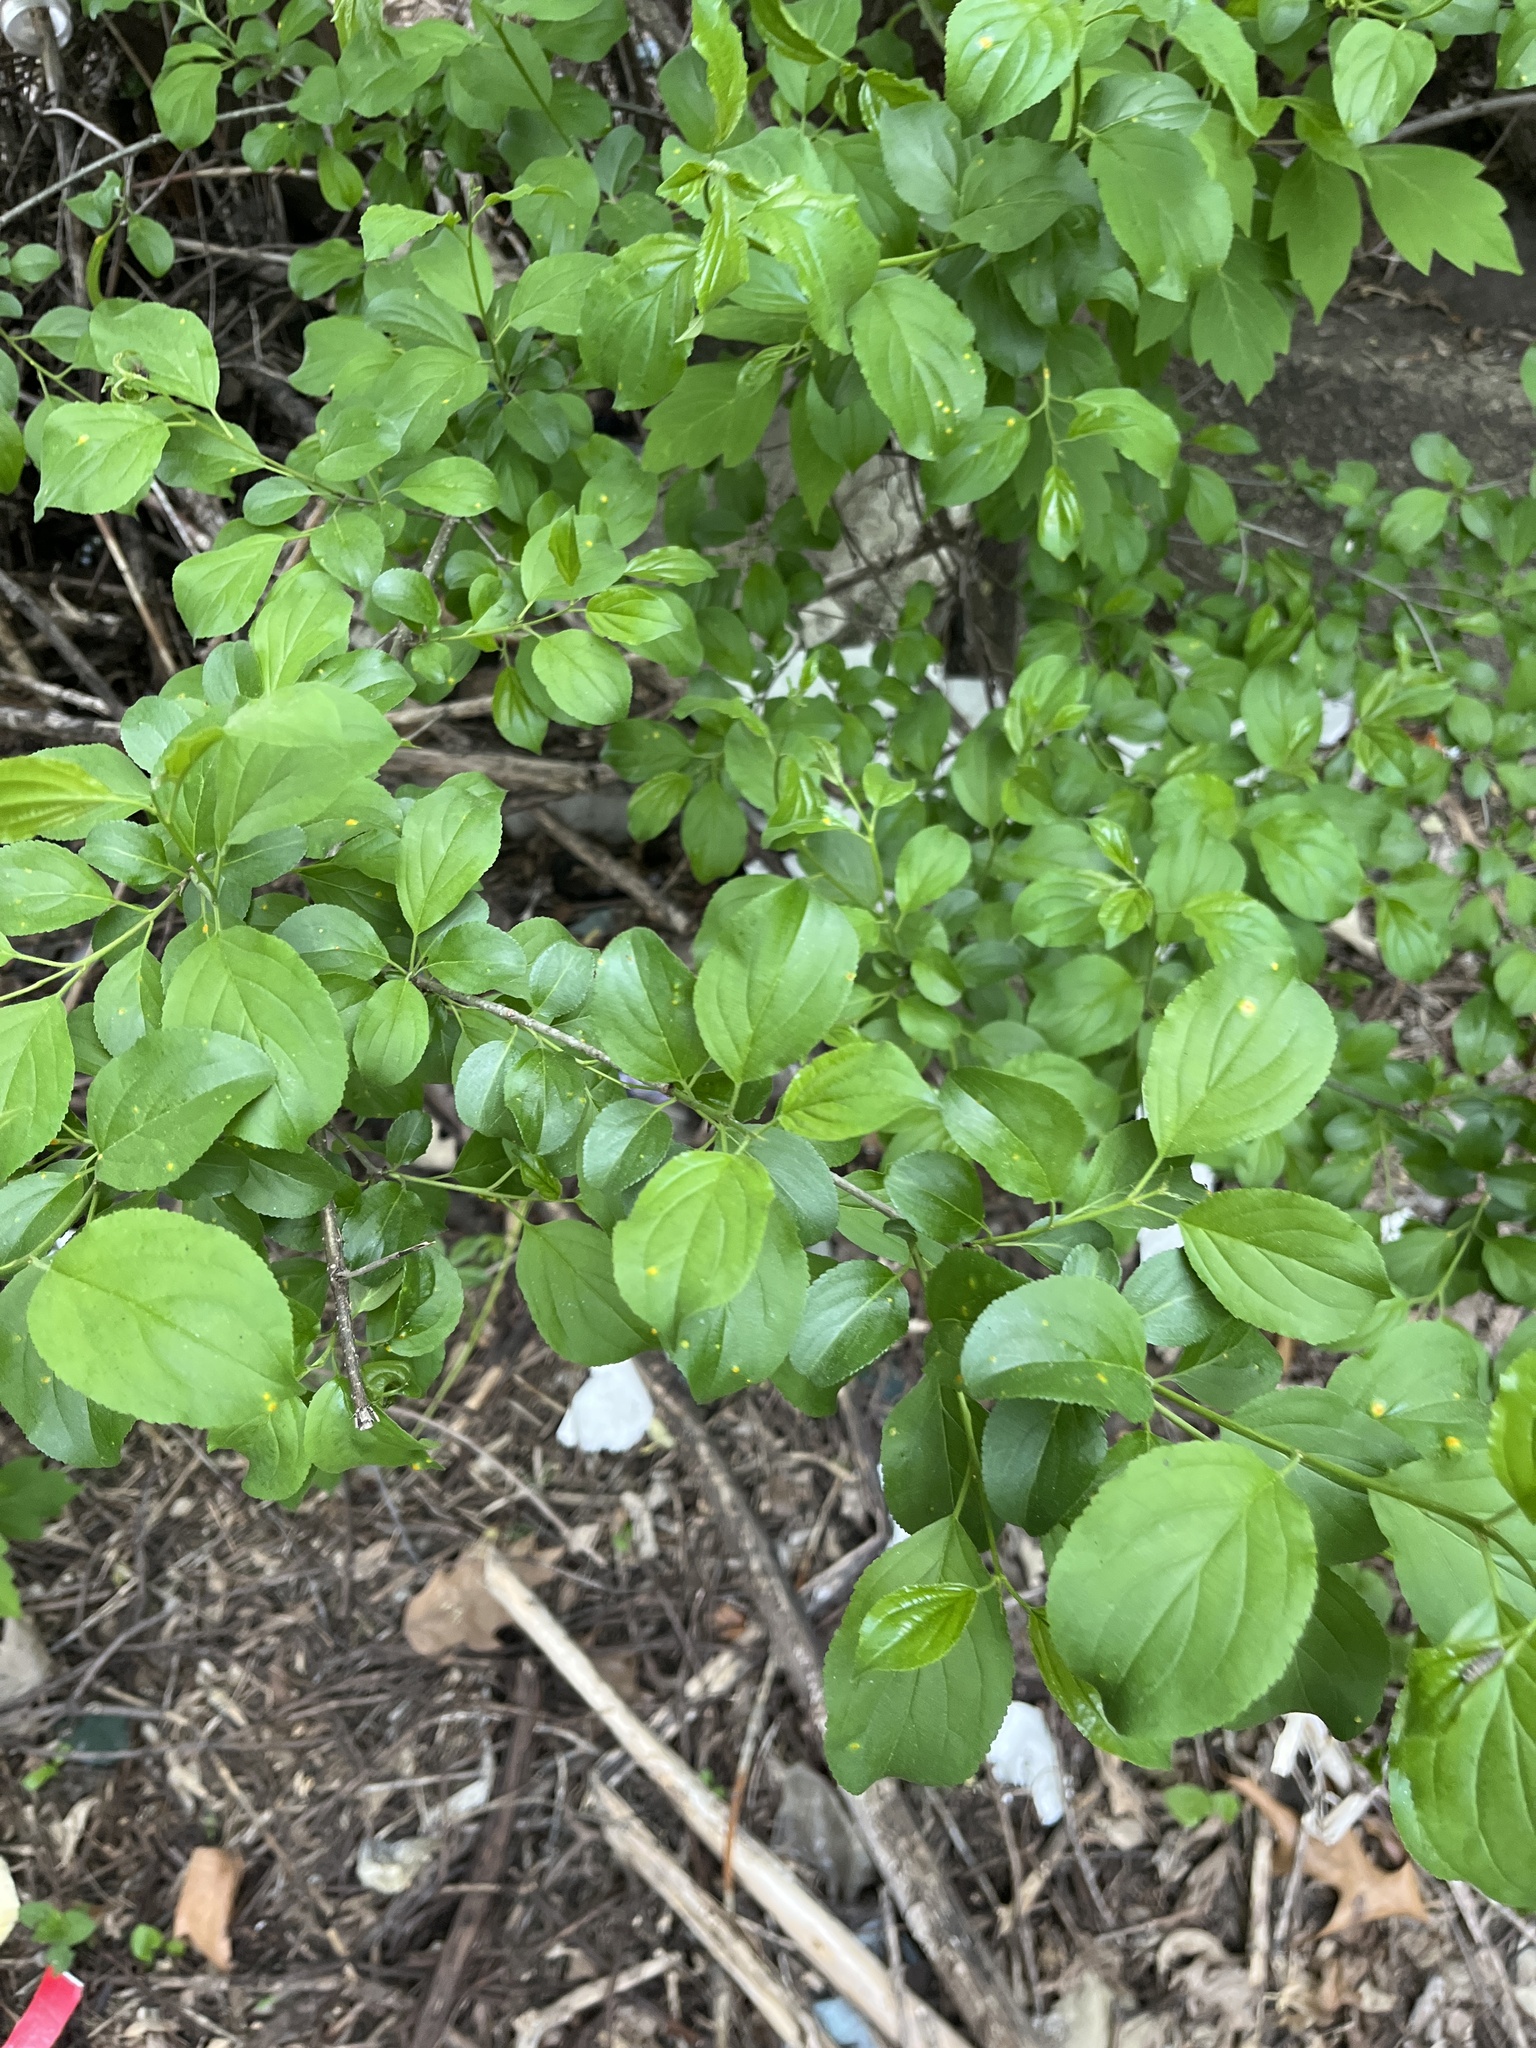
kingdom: Plantae
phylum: Tracheophyta
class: Magnoliopsida
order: Rosales
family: Rhamnaceae
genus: Rhamnus
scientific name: Rhamnus cathartica
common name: Common buckthorn
